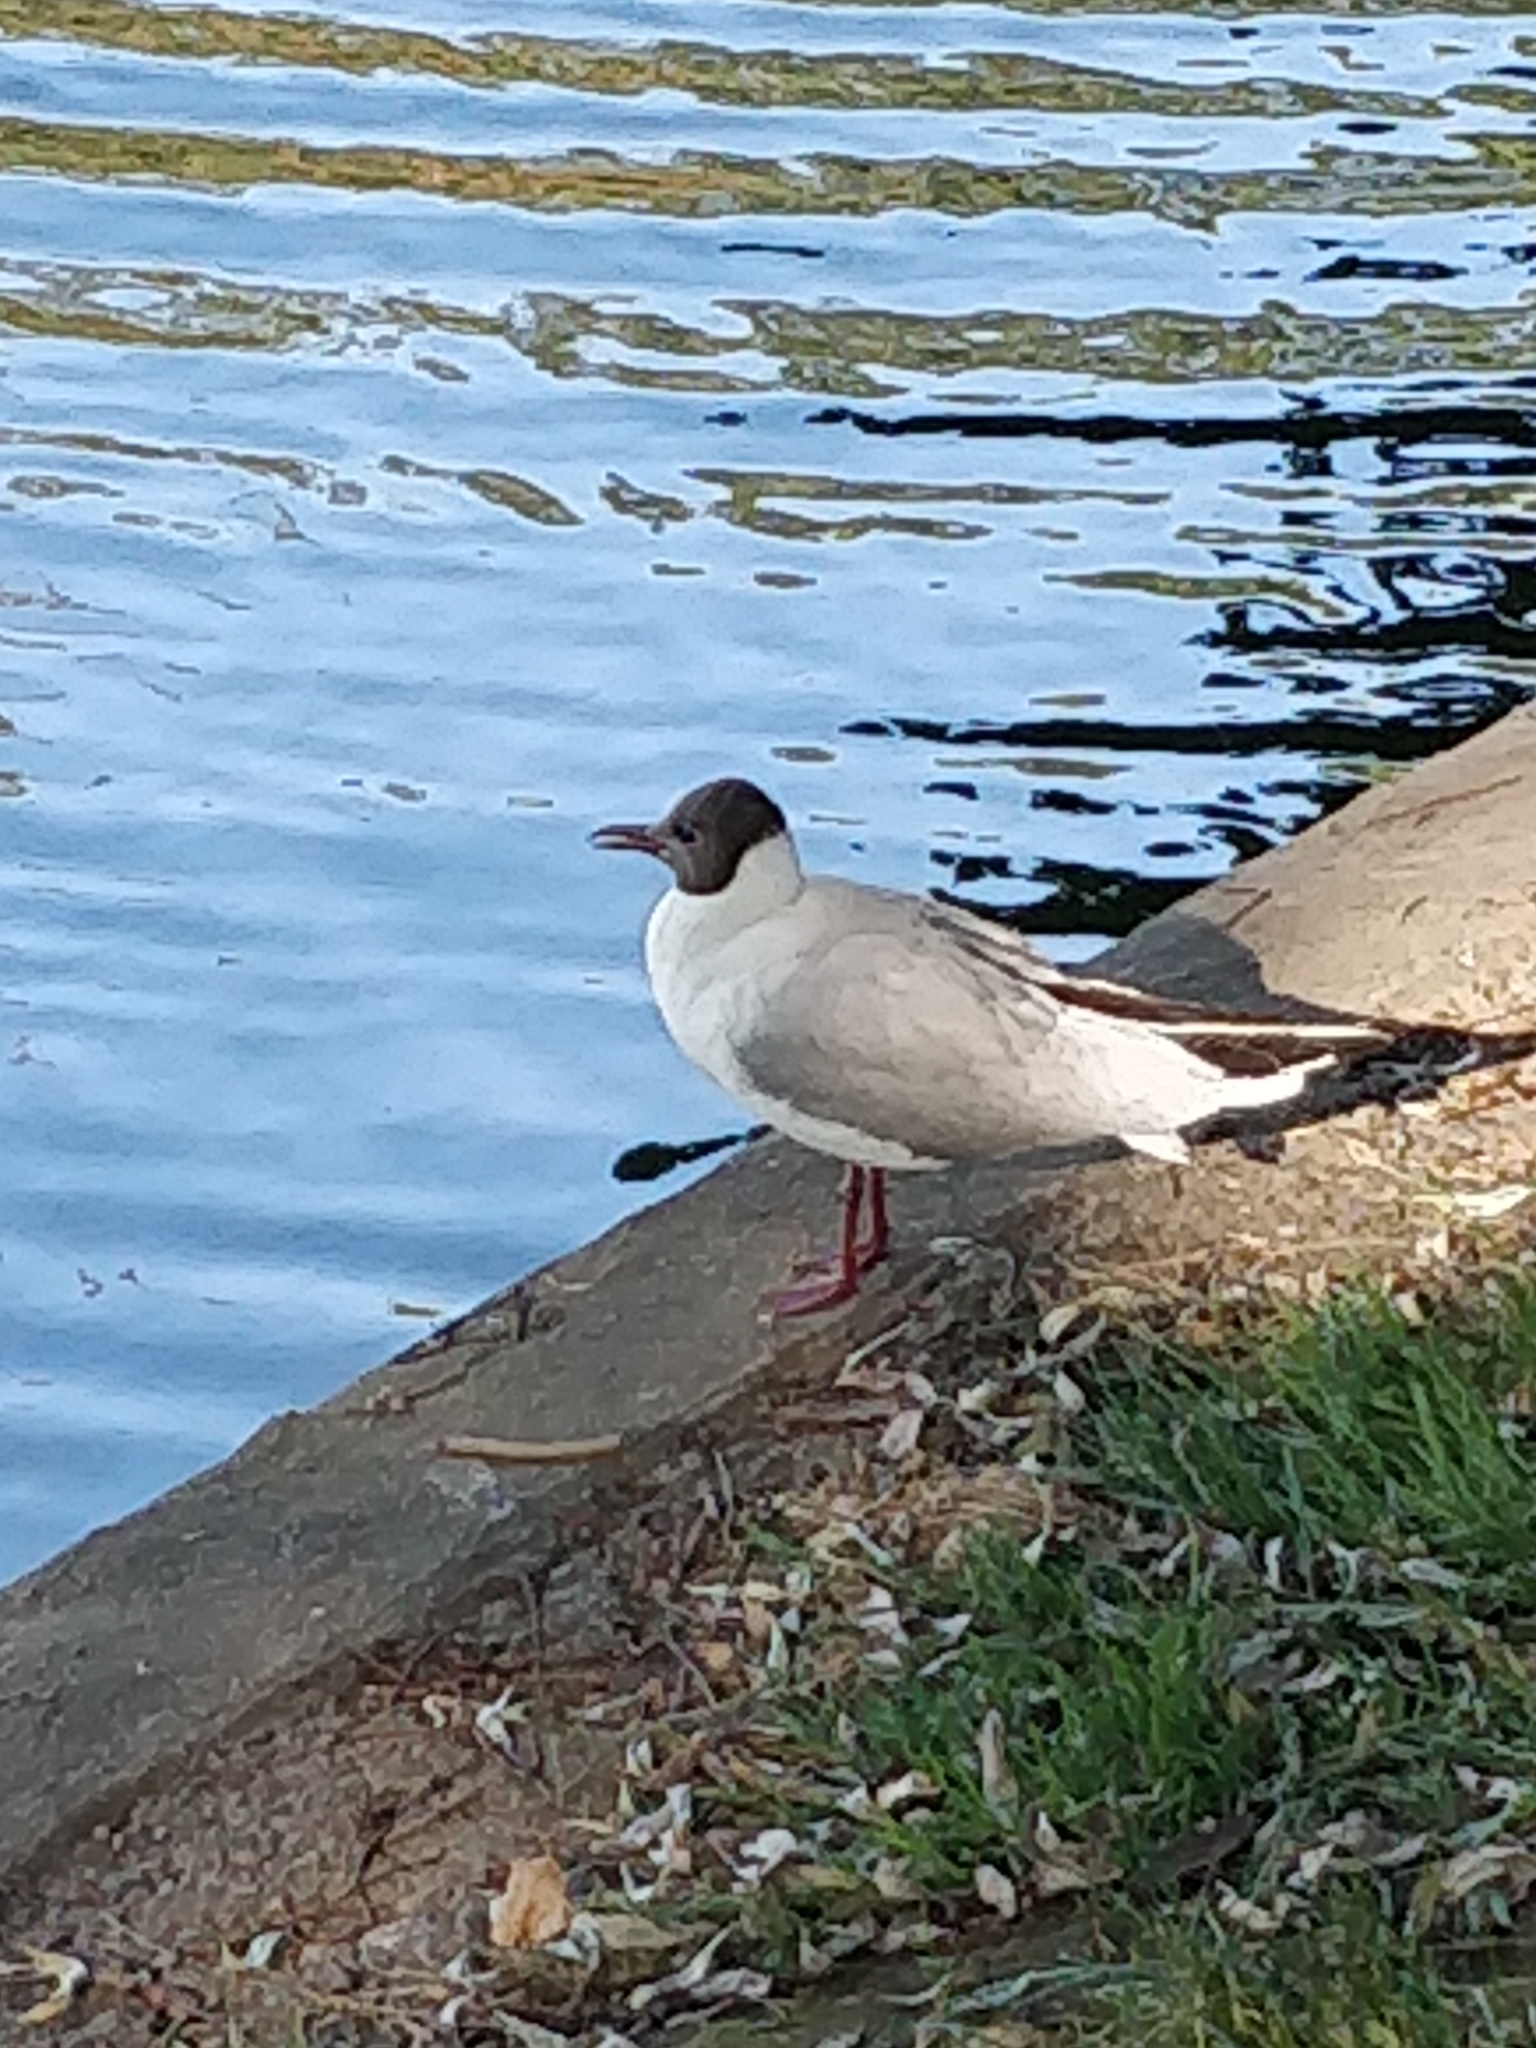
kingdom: Animalia
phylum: Chordata
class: Aves
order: Charadriiformes
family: Laridae
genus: Chroicocephalus
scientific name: Chroicocephalus ridibundus
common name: Black-headed gull
